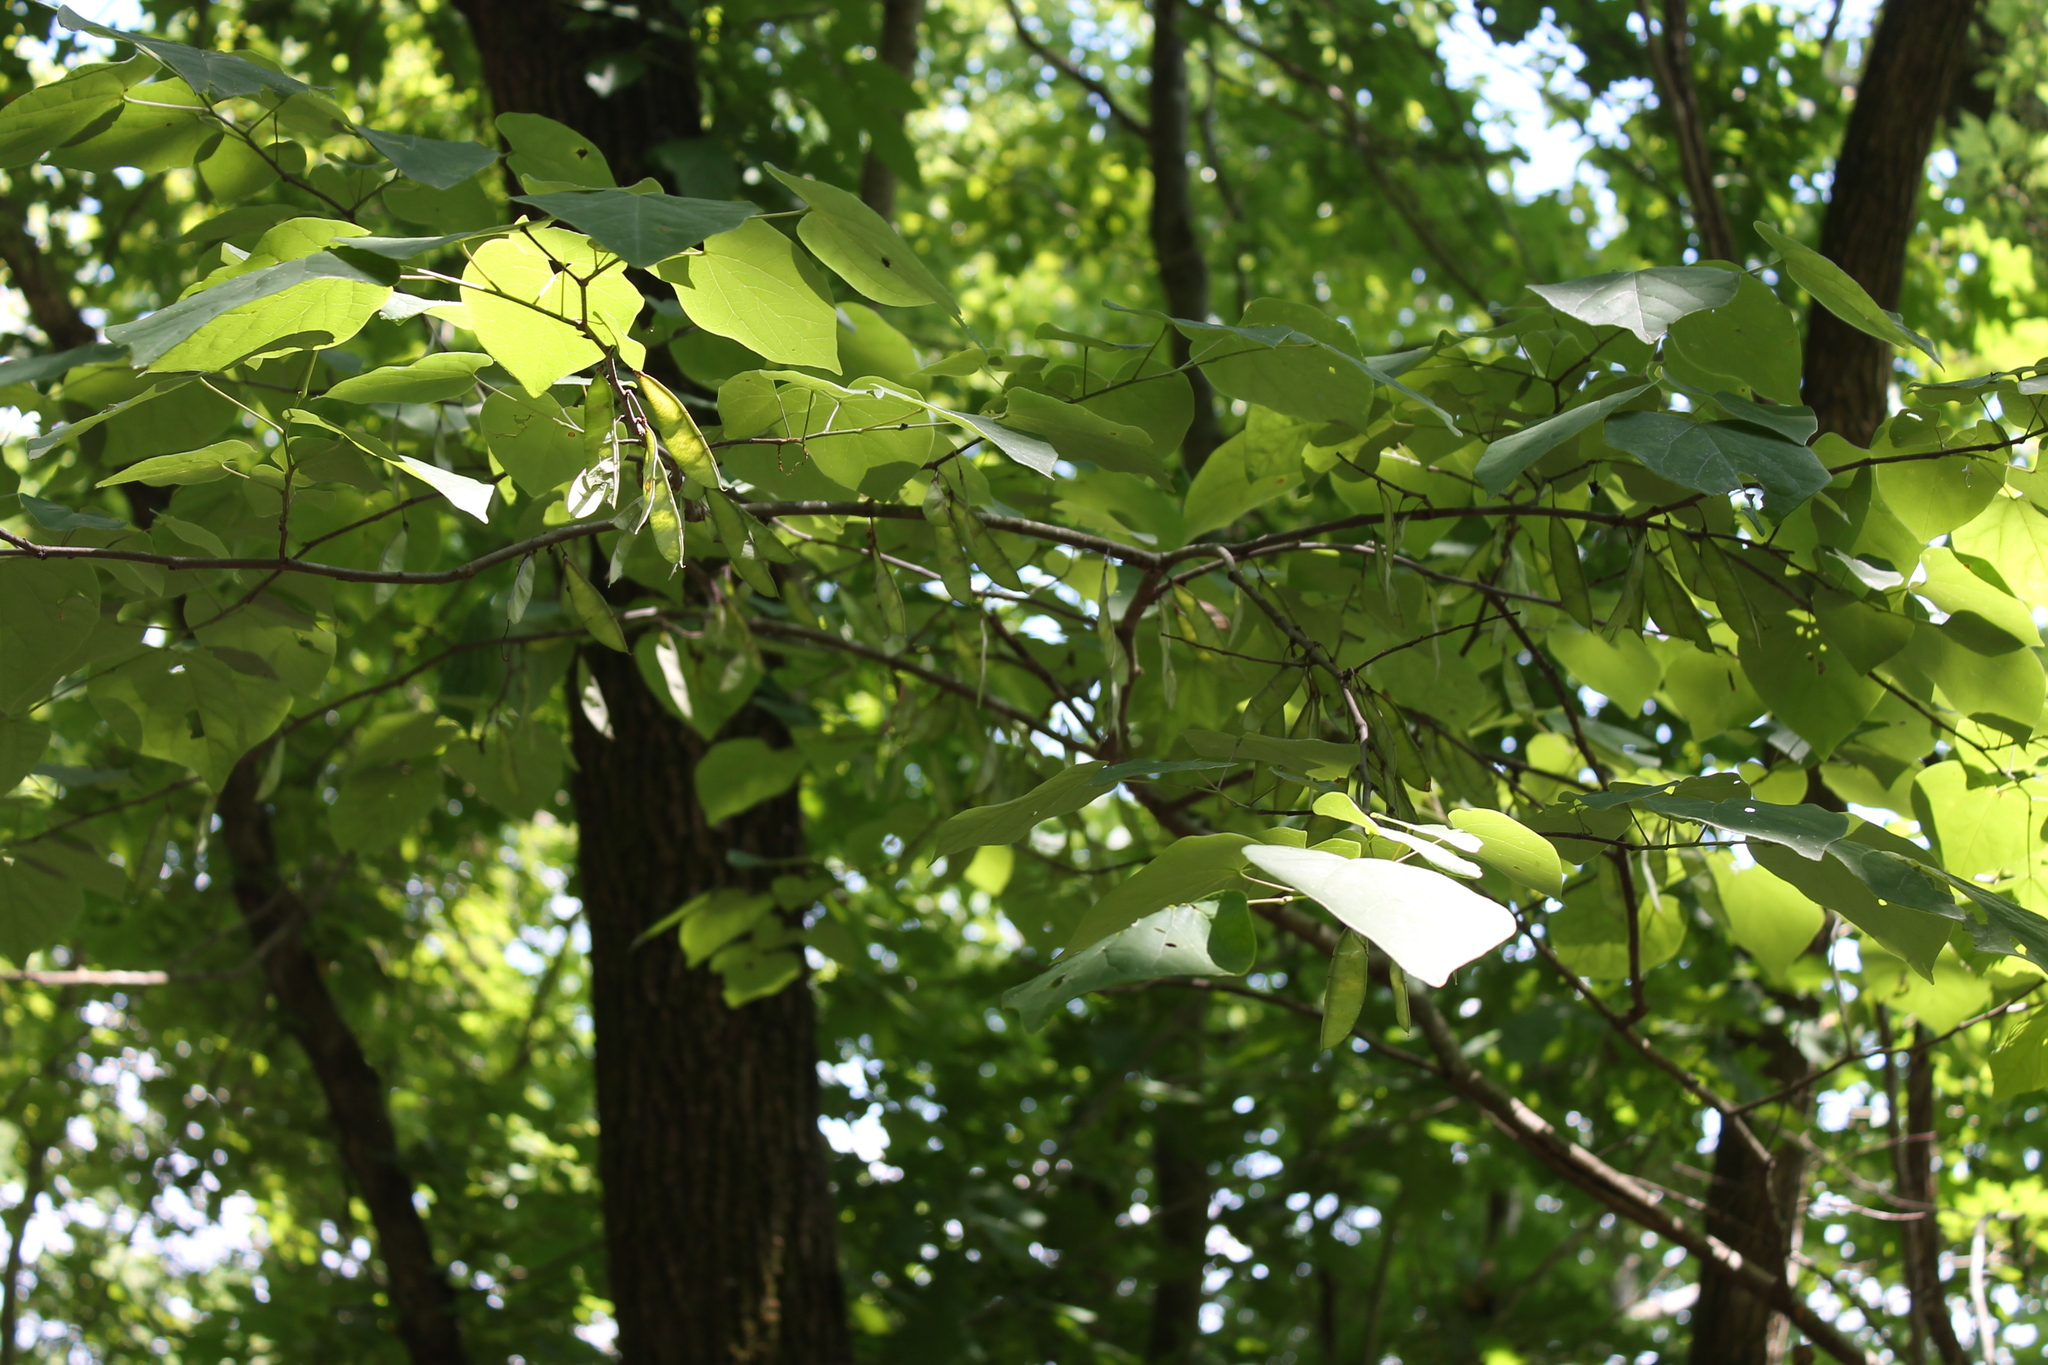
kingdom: Plantae
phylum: Tracheophyta
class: Magnoliopsida
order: Fabales
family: Fabaceae
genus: Cercis
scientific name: Cercis canadensis
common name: Eastern redbud
